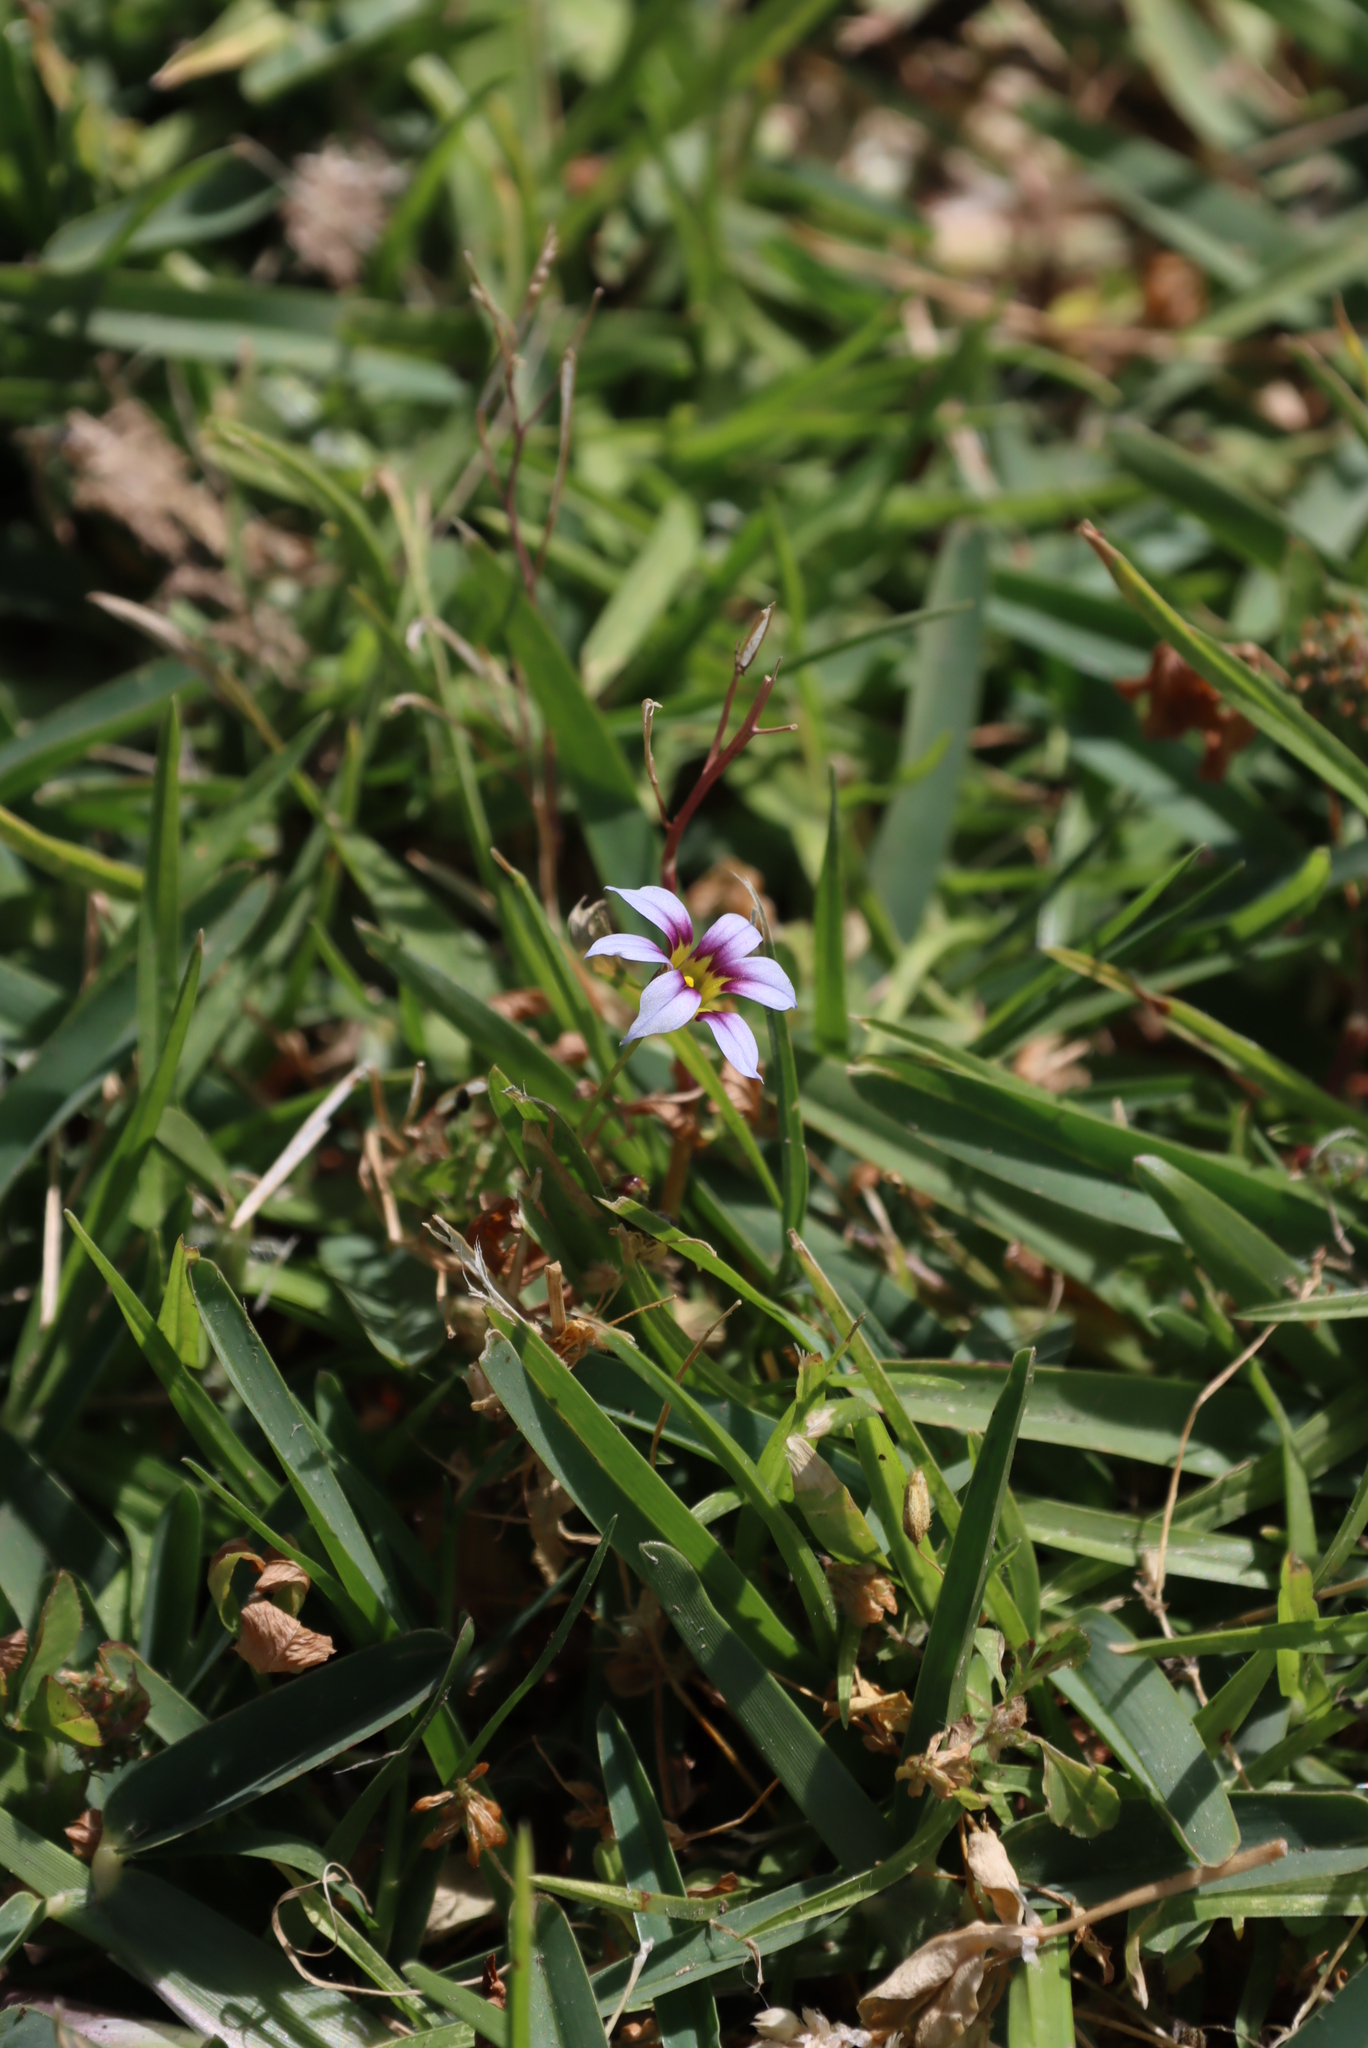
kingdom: Plantae
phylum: Tracheophyta
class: Liliopsida
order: Asparagales
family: Iridaceae
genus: Sisyrinchium
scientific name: Sisyrinchium micranthum
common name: Bermuda pigroot
